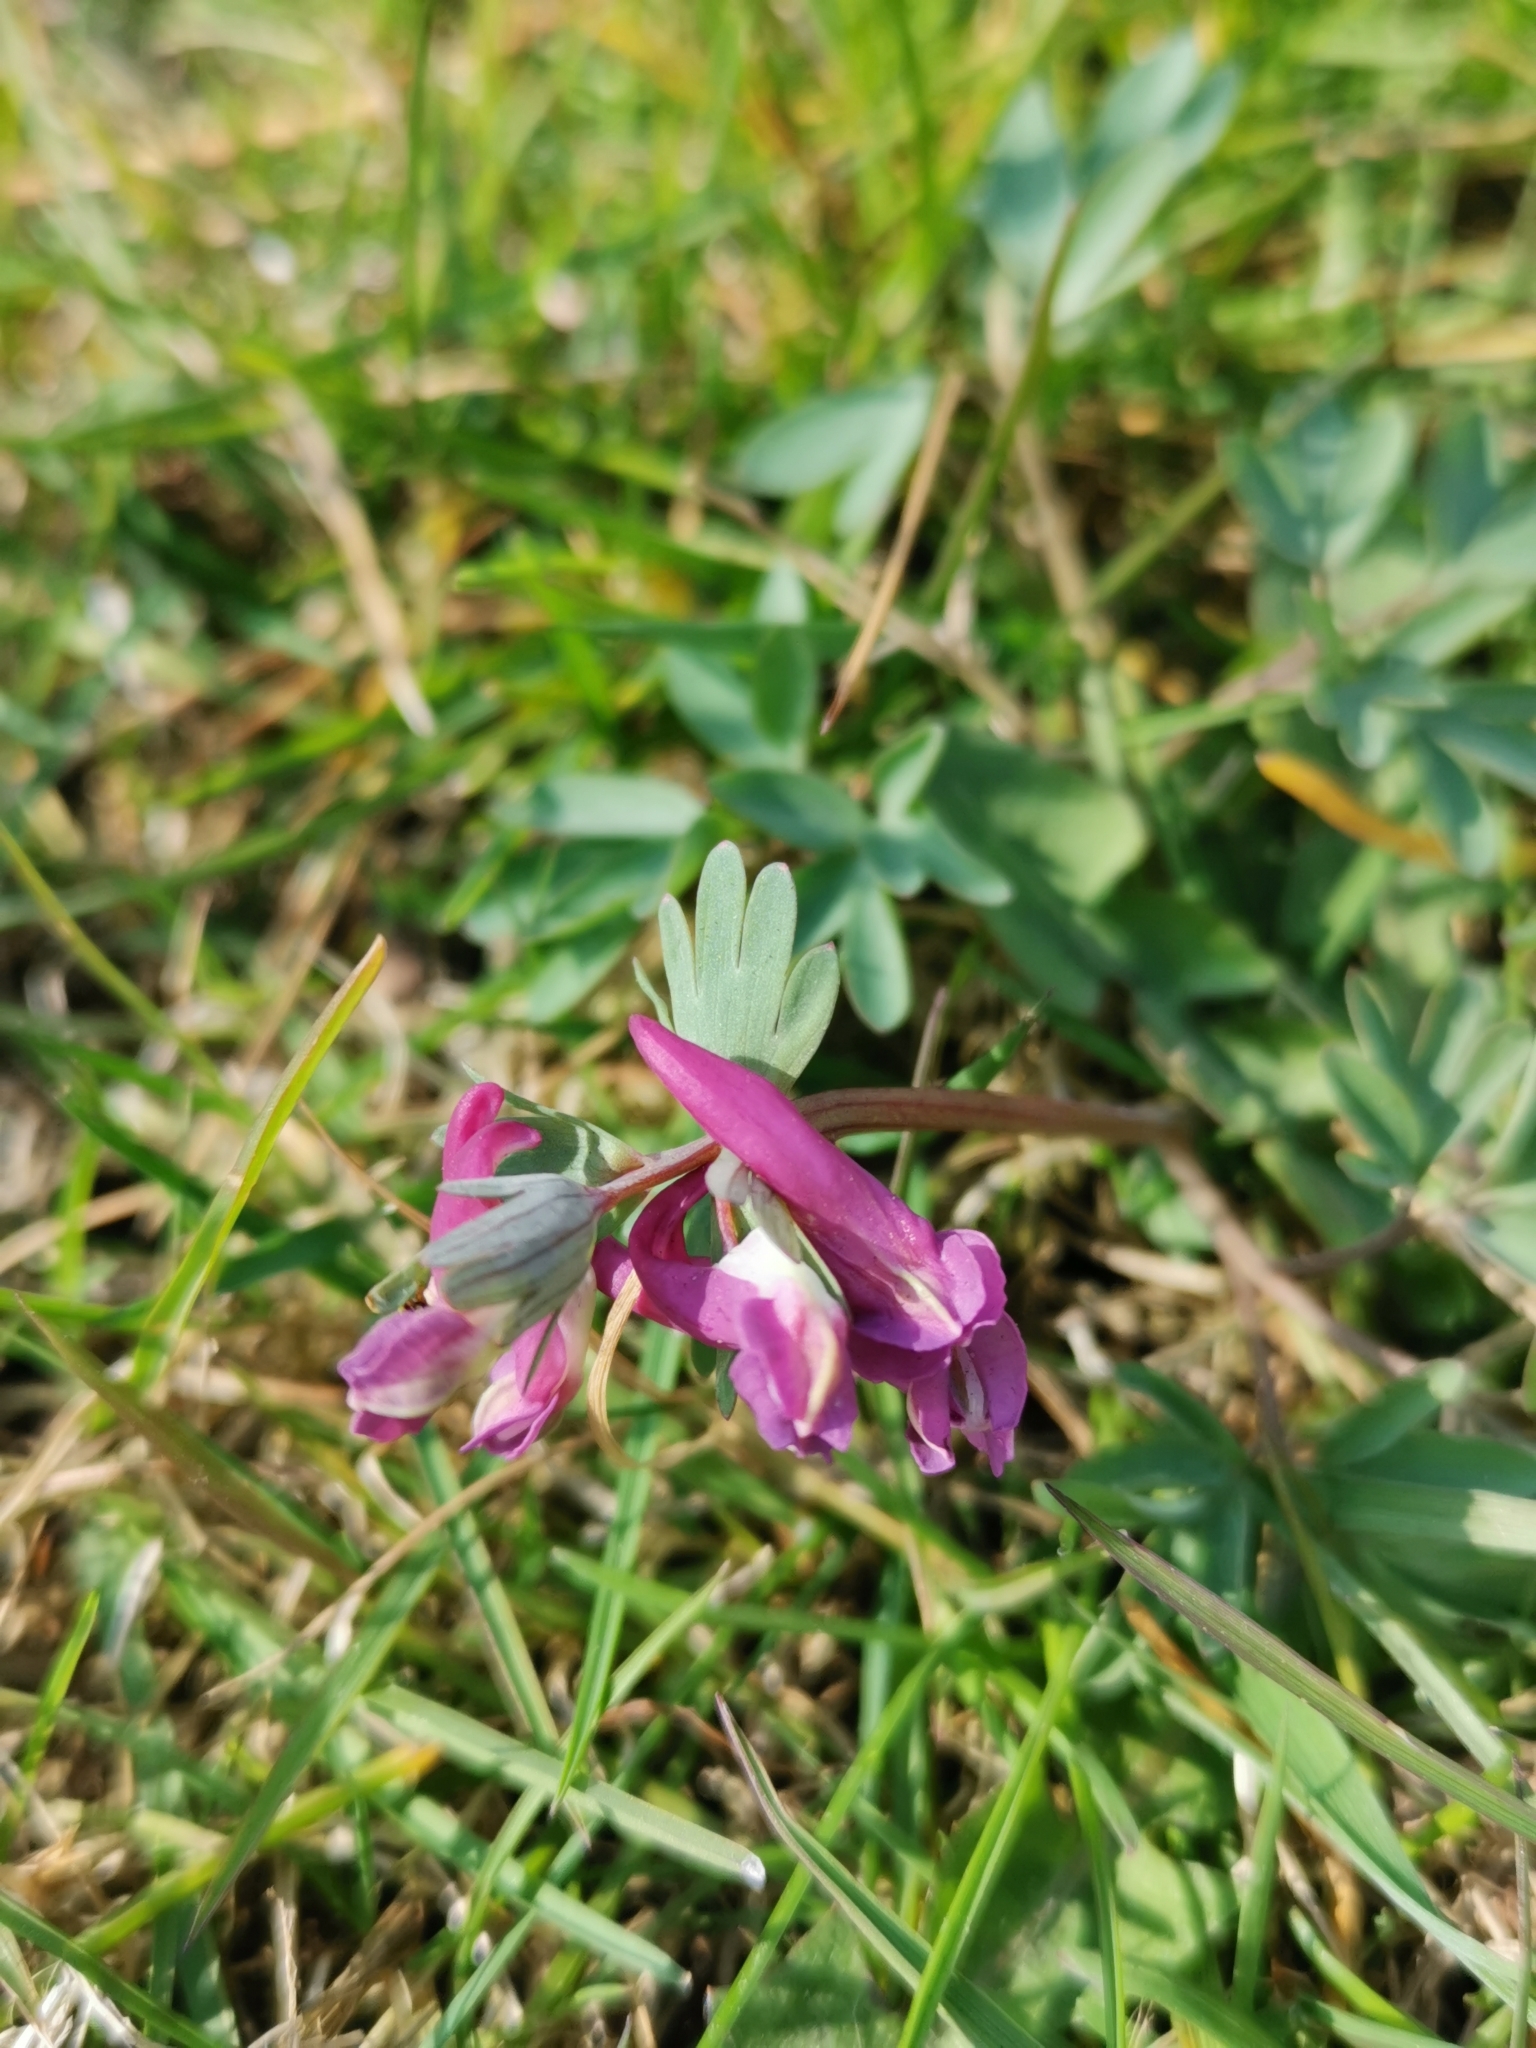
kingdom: Plantae
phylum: Tracheophyta
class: Magnoliopsida
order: Ranunculales
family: Papaveraceae
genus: Corydalis
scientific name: Corydalis solida
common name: Bird-in-a-bush
